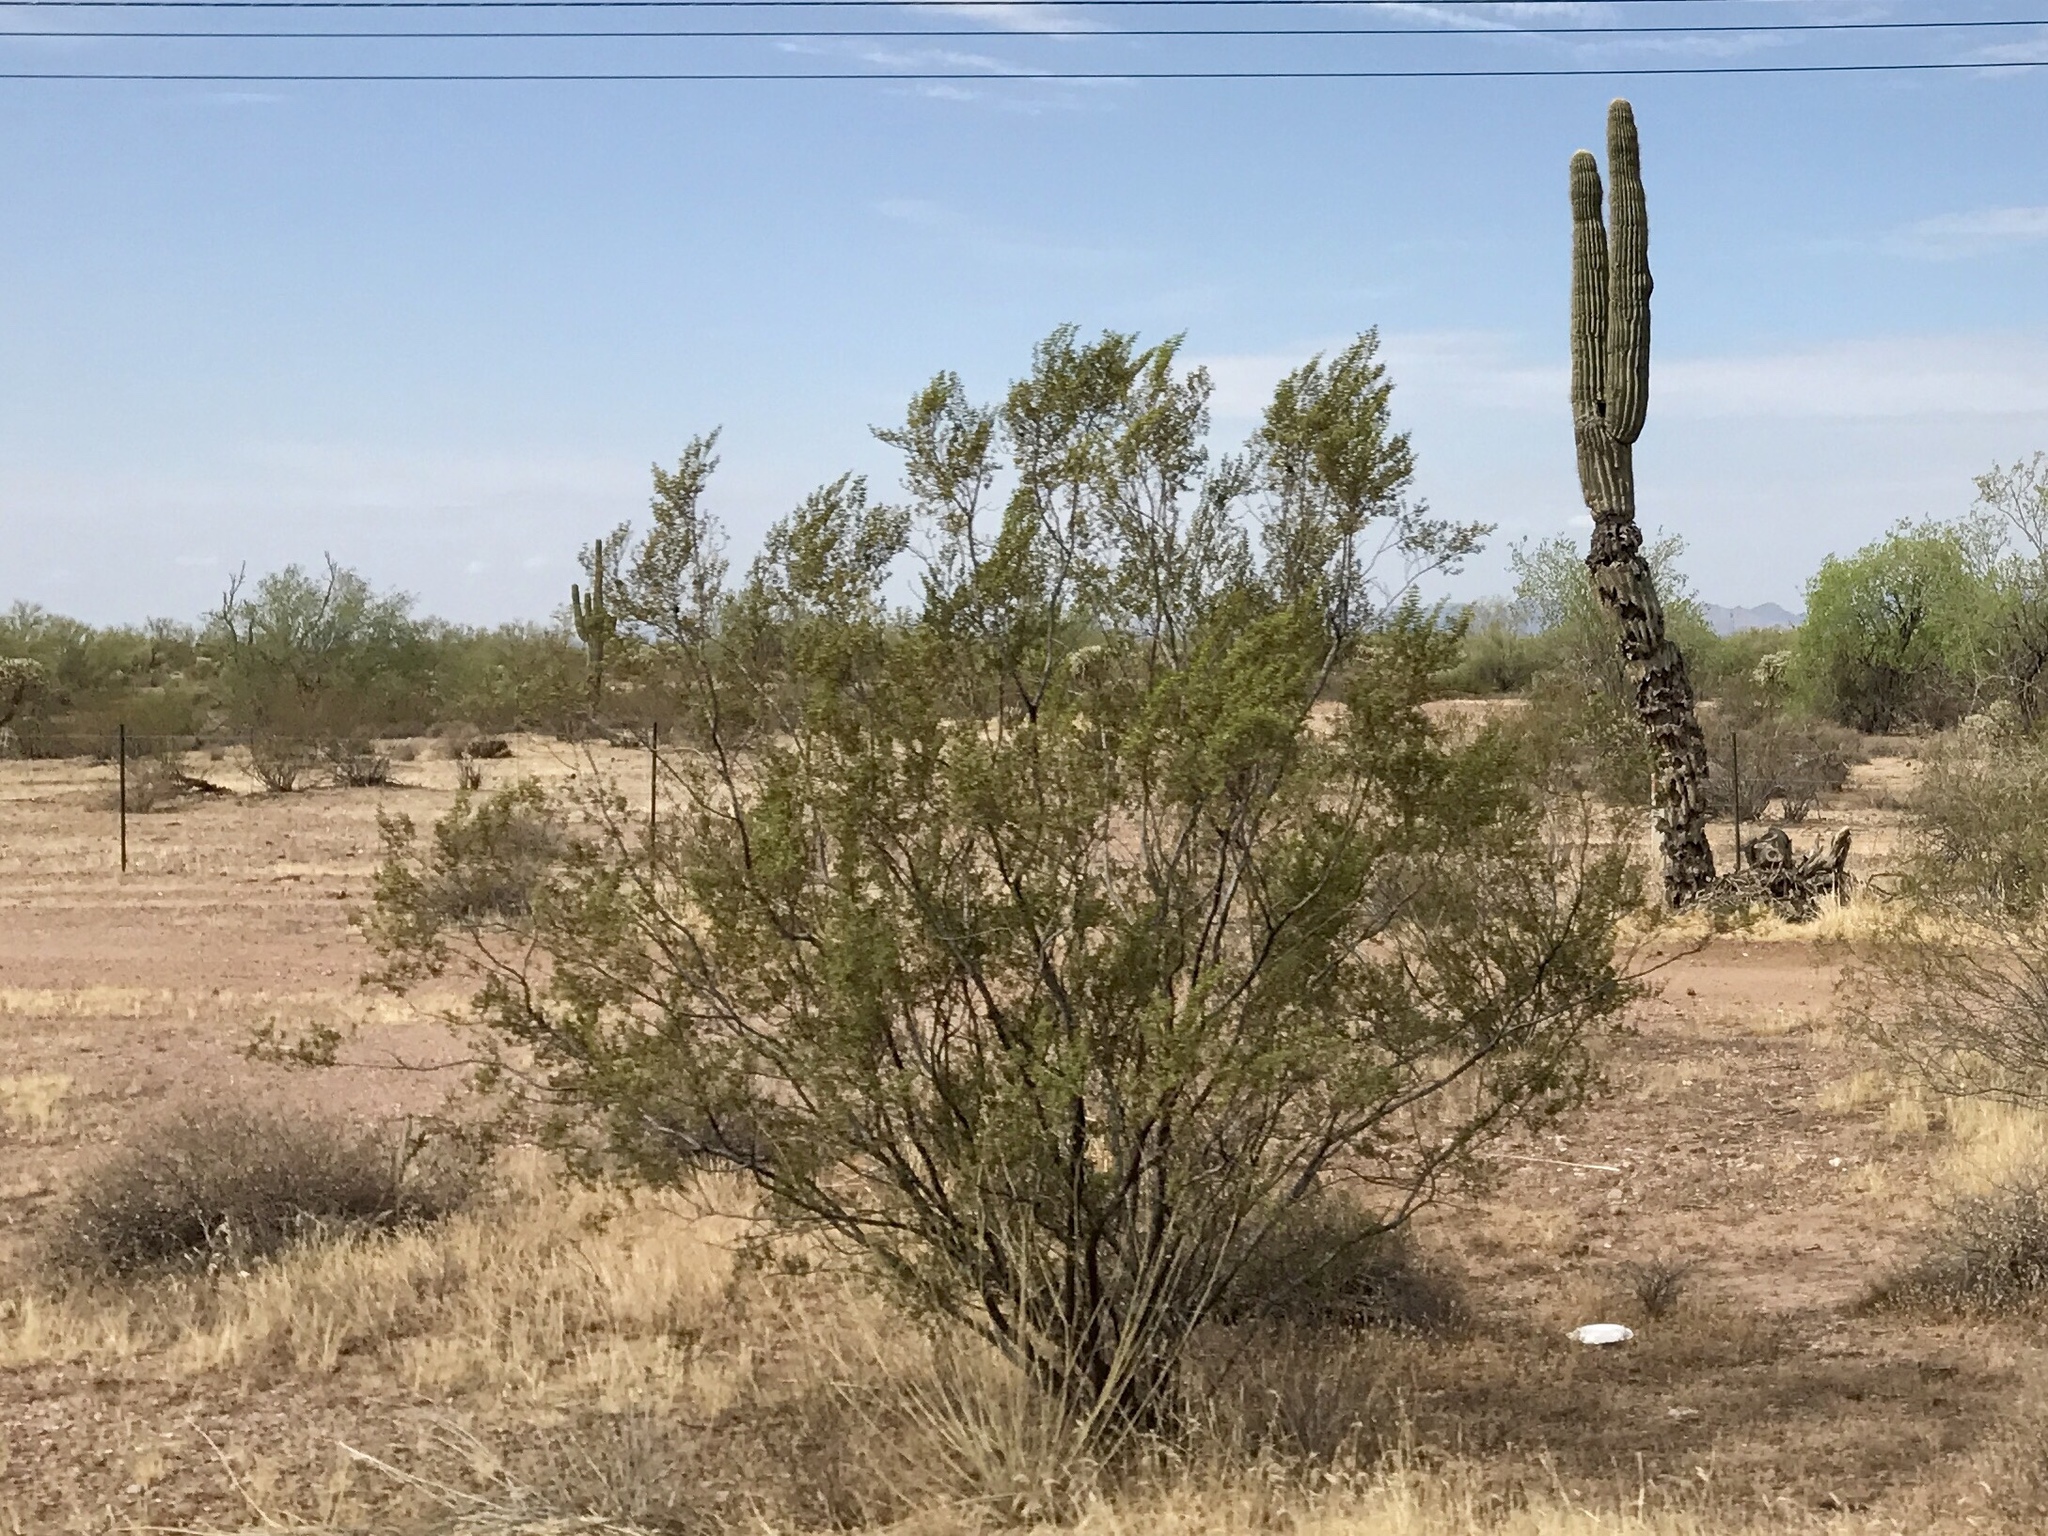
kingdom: Plantae
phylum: Tracheophyta
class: Magnoliopsida
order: Zygophyllales
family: Zygophyllaceae
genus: Larrea
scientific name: Larrea tridentata
